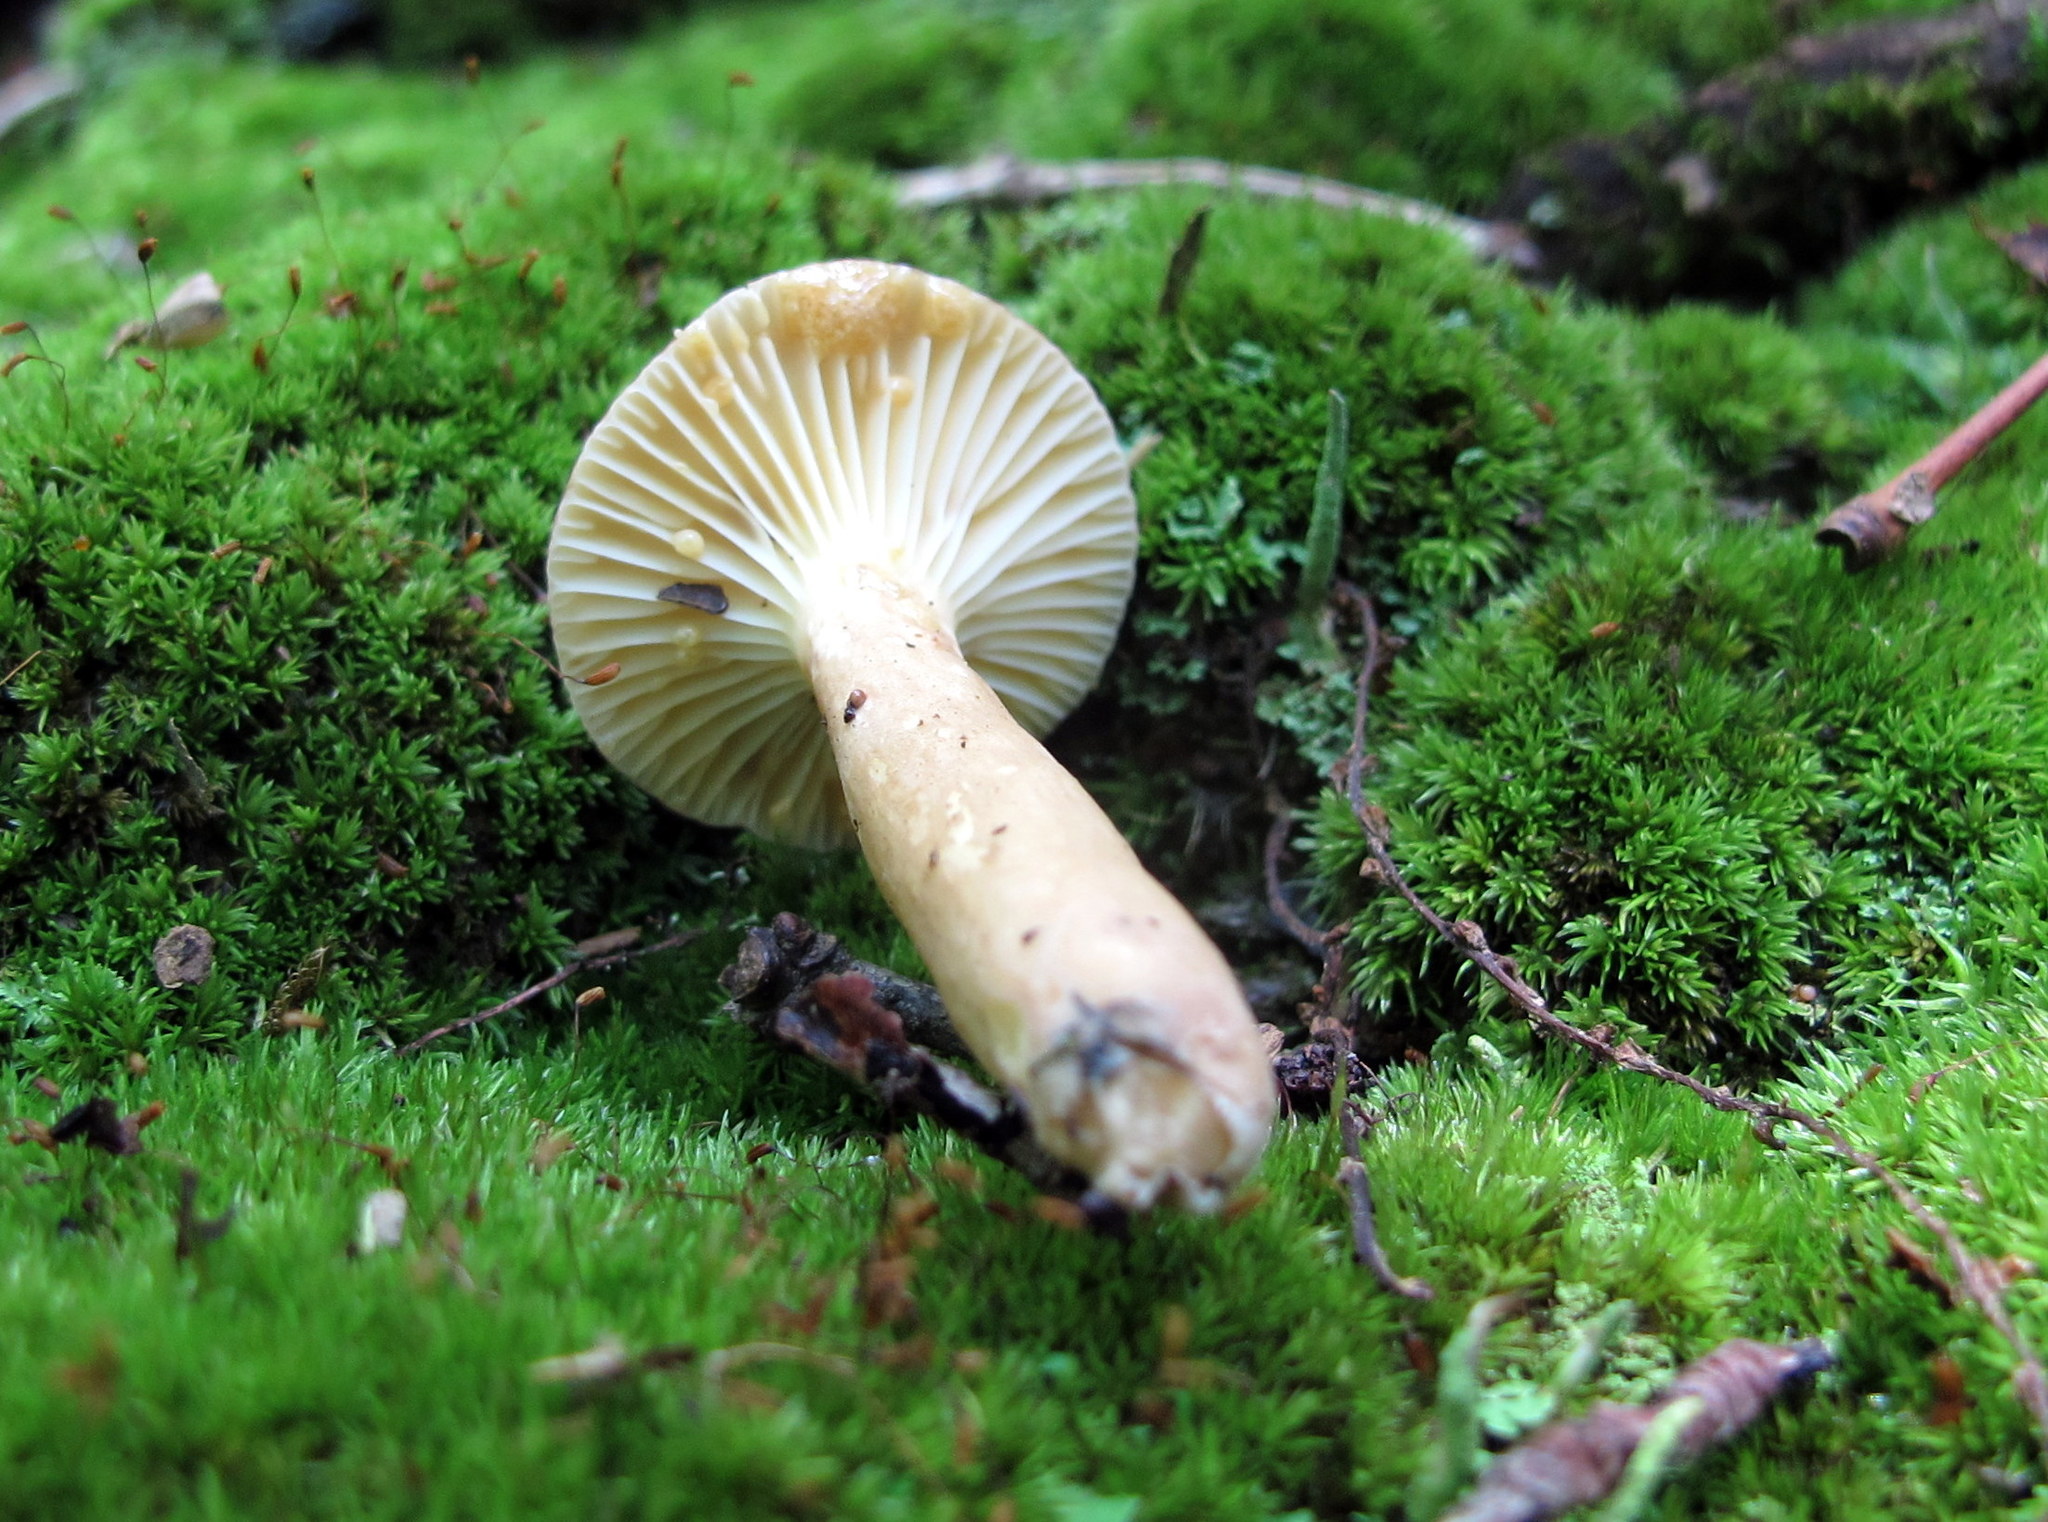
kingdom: Fungi
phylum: Basidiomycota
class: Agaricomycetes
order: Russulales
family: Russulaceae
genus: Lactifluus
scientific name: Lactifluus petersenii
